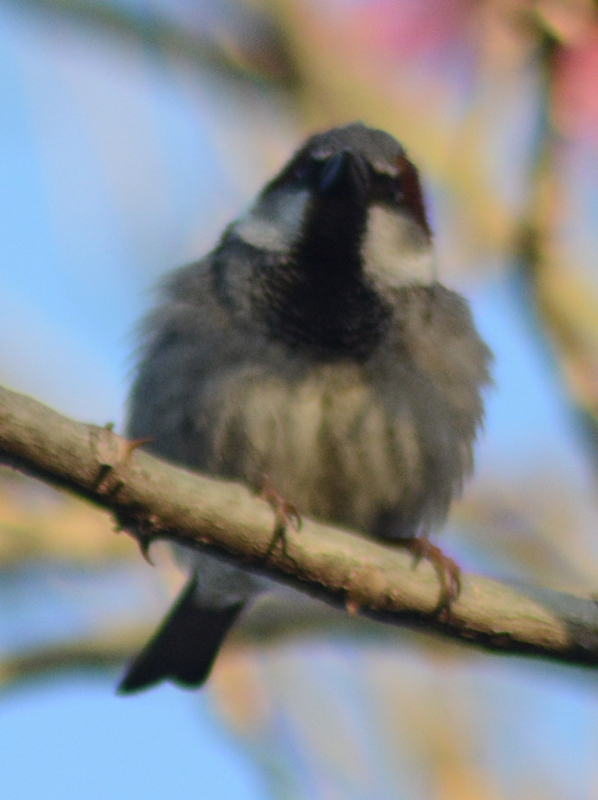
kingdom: Animalia
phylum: Chordata
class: Aves
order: Passeriformes
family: Passeridae
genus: Passer
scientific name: Passer domesticus
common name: House sparrow
